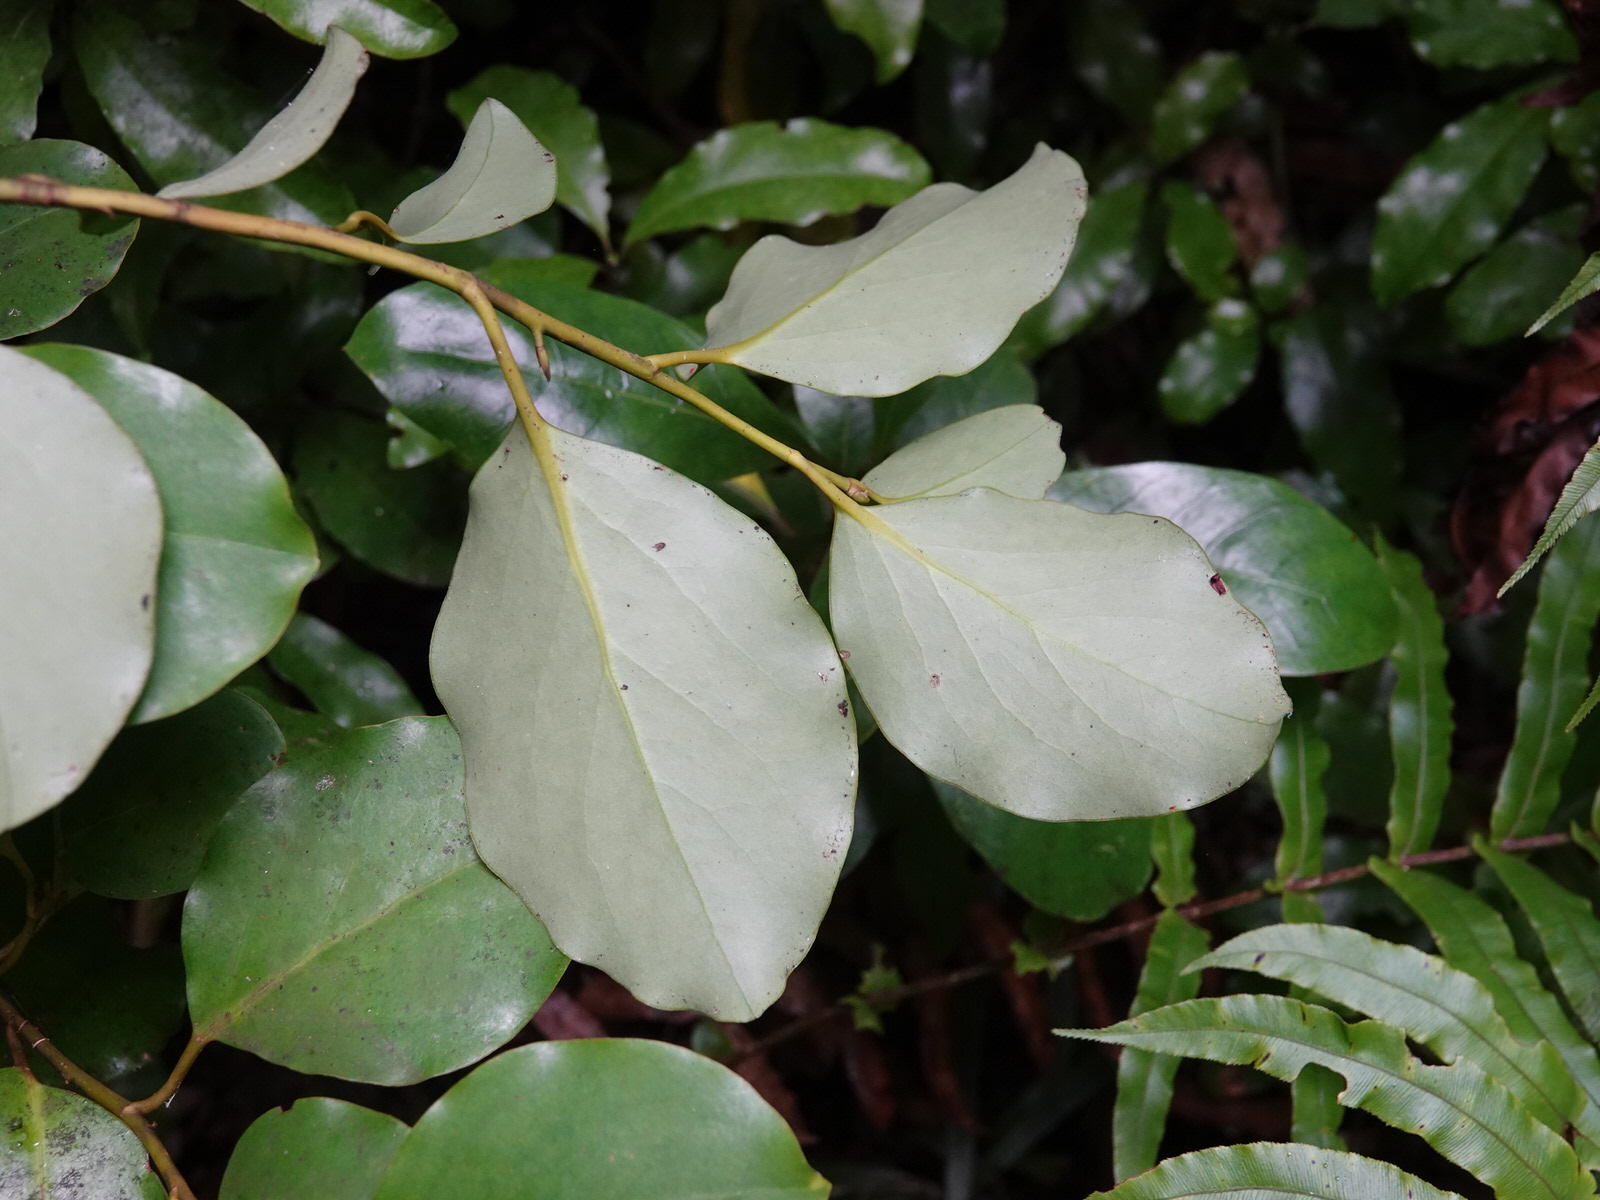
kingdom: Plantae
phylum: Tracheophyta
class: Magnoliopsida
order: Apiales
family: Griseliniaceae
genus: Griselinia
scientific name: Griselinia littoralis
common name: New zealand broadleaf
